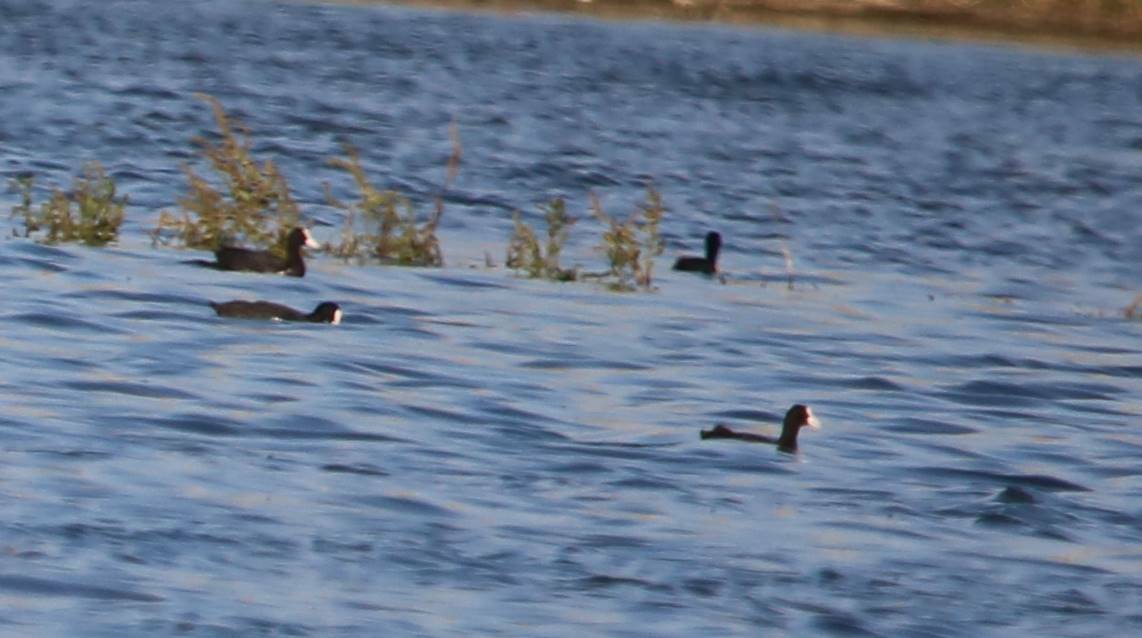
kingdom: Animalia
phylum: Chordata
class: Aves
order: Gruiformes
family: Rallidae
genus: Fulica
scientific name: Fulica atra
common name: Eurasian coot
